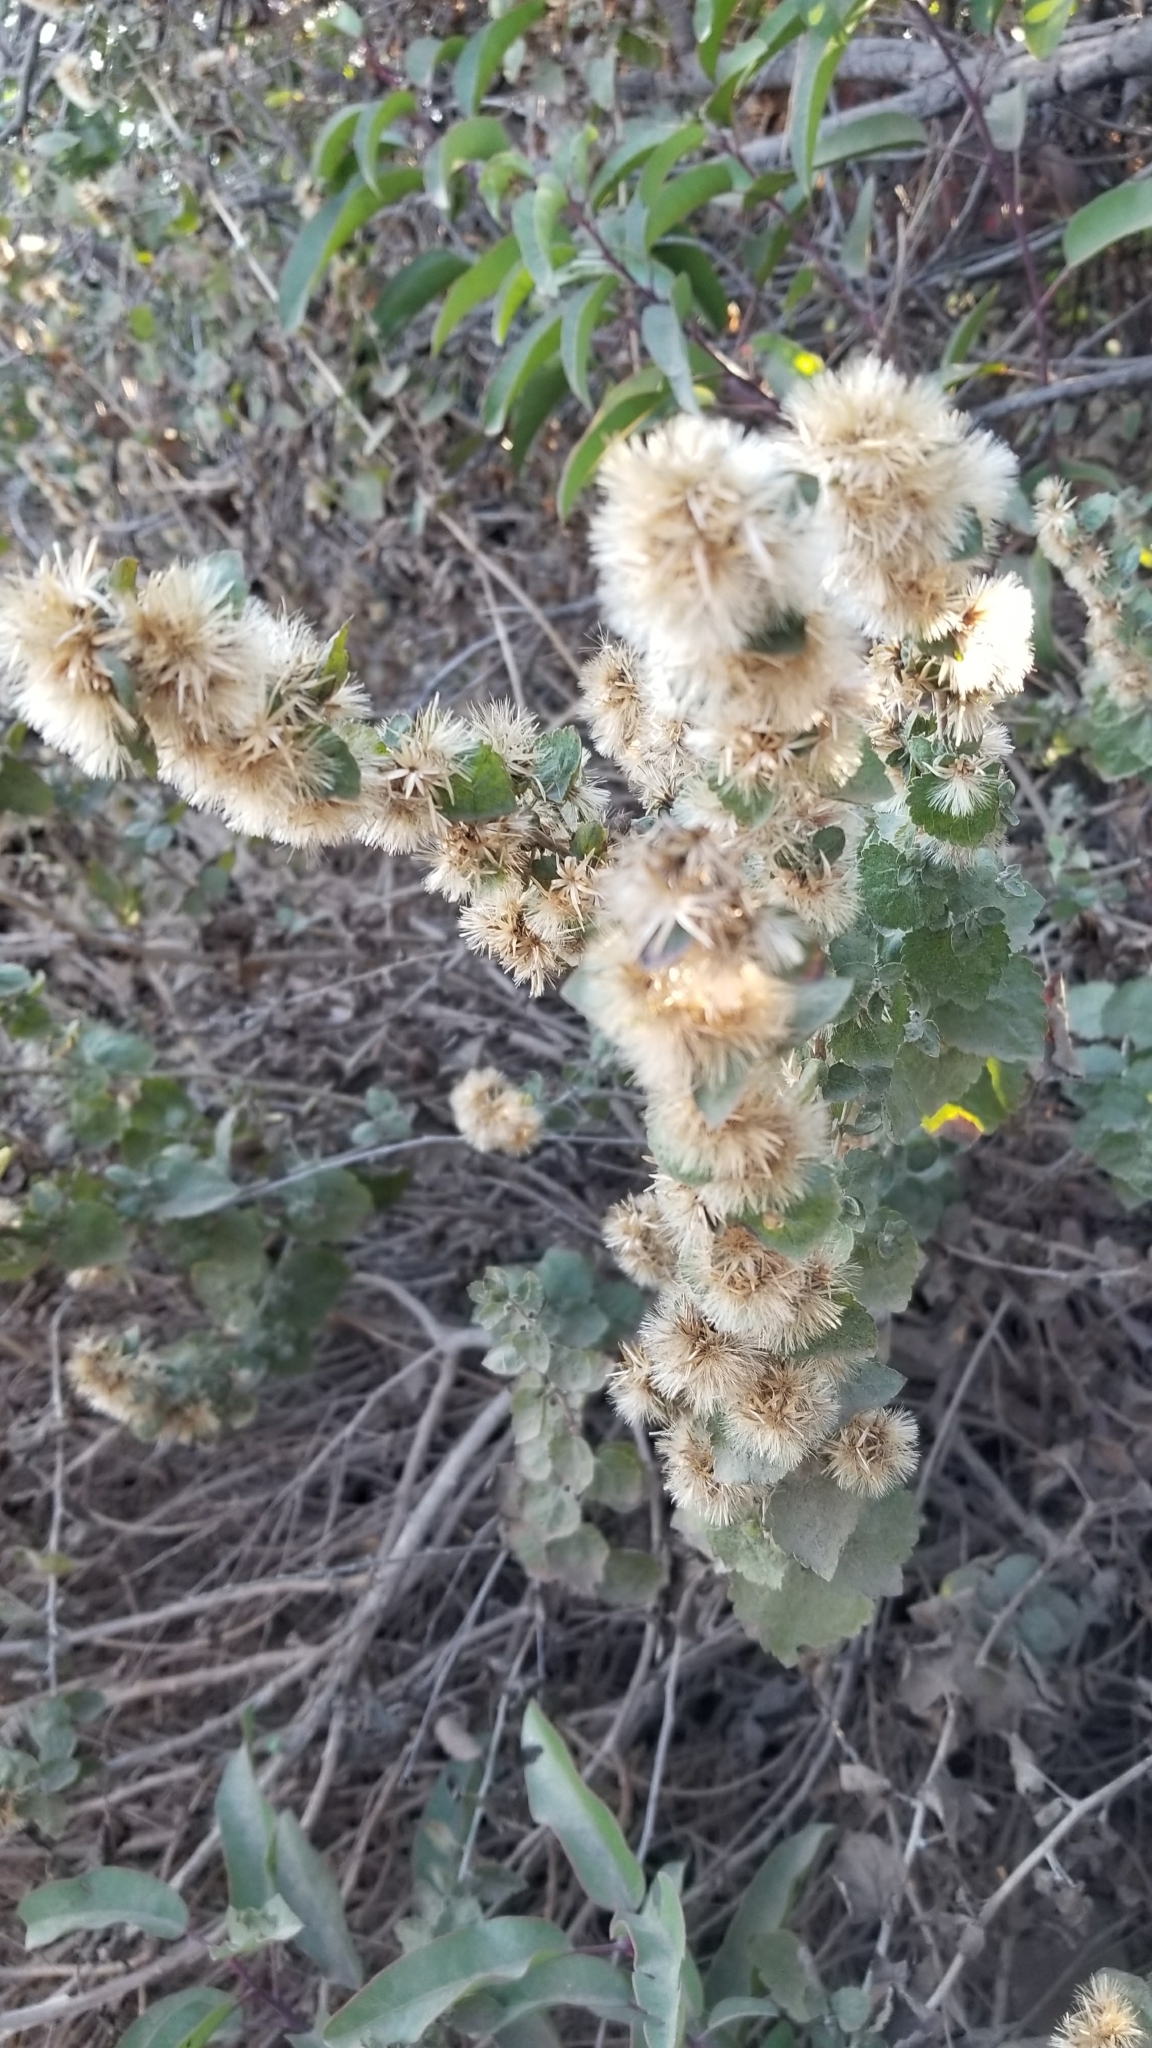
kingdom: Plantae
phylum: Tracheophyta
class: Magnoliopsida
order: Asterales
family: Asteraceae
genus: Heterotheca
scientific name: Heterotheca grandiflora
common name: Telegraphweed
